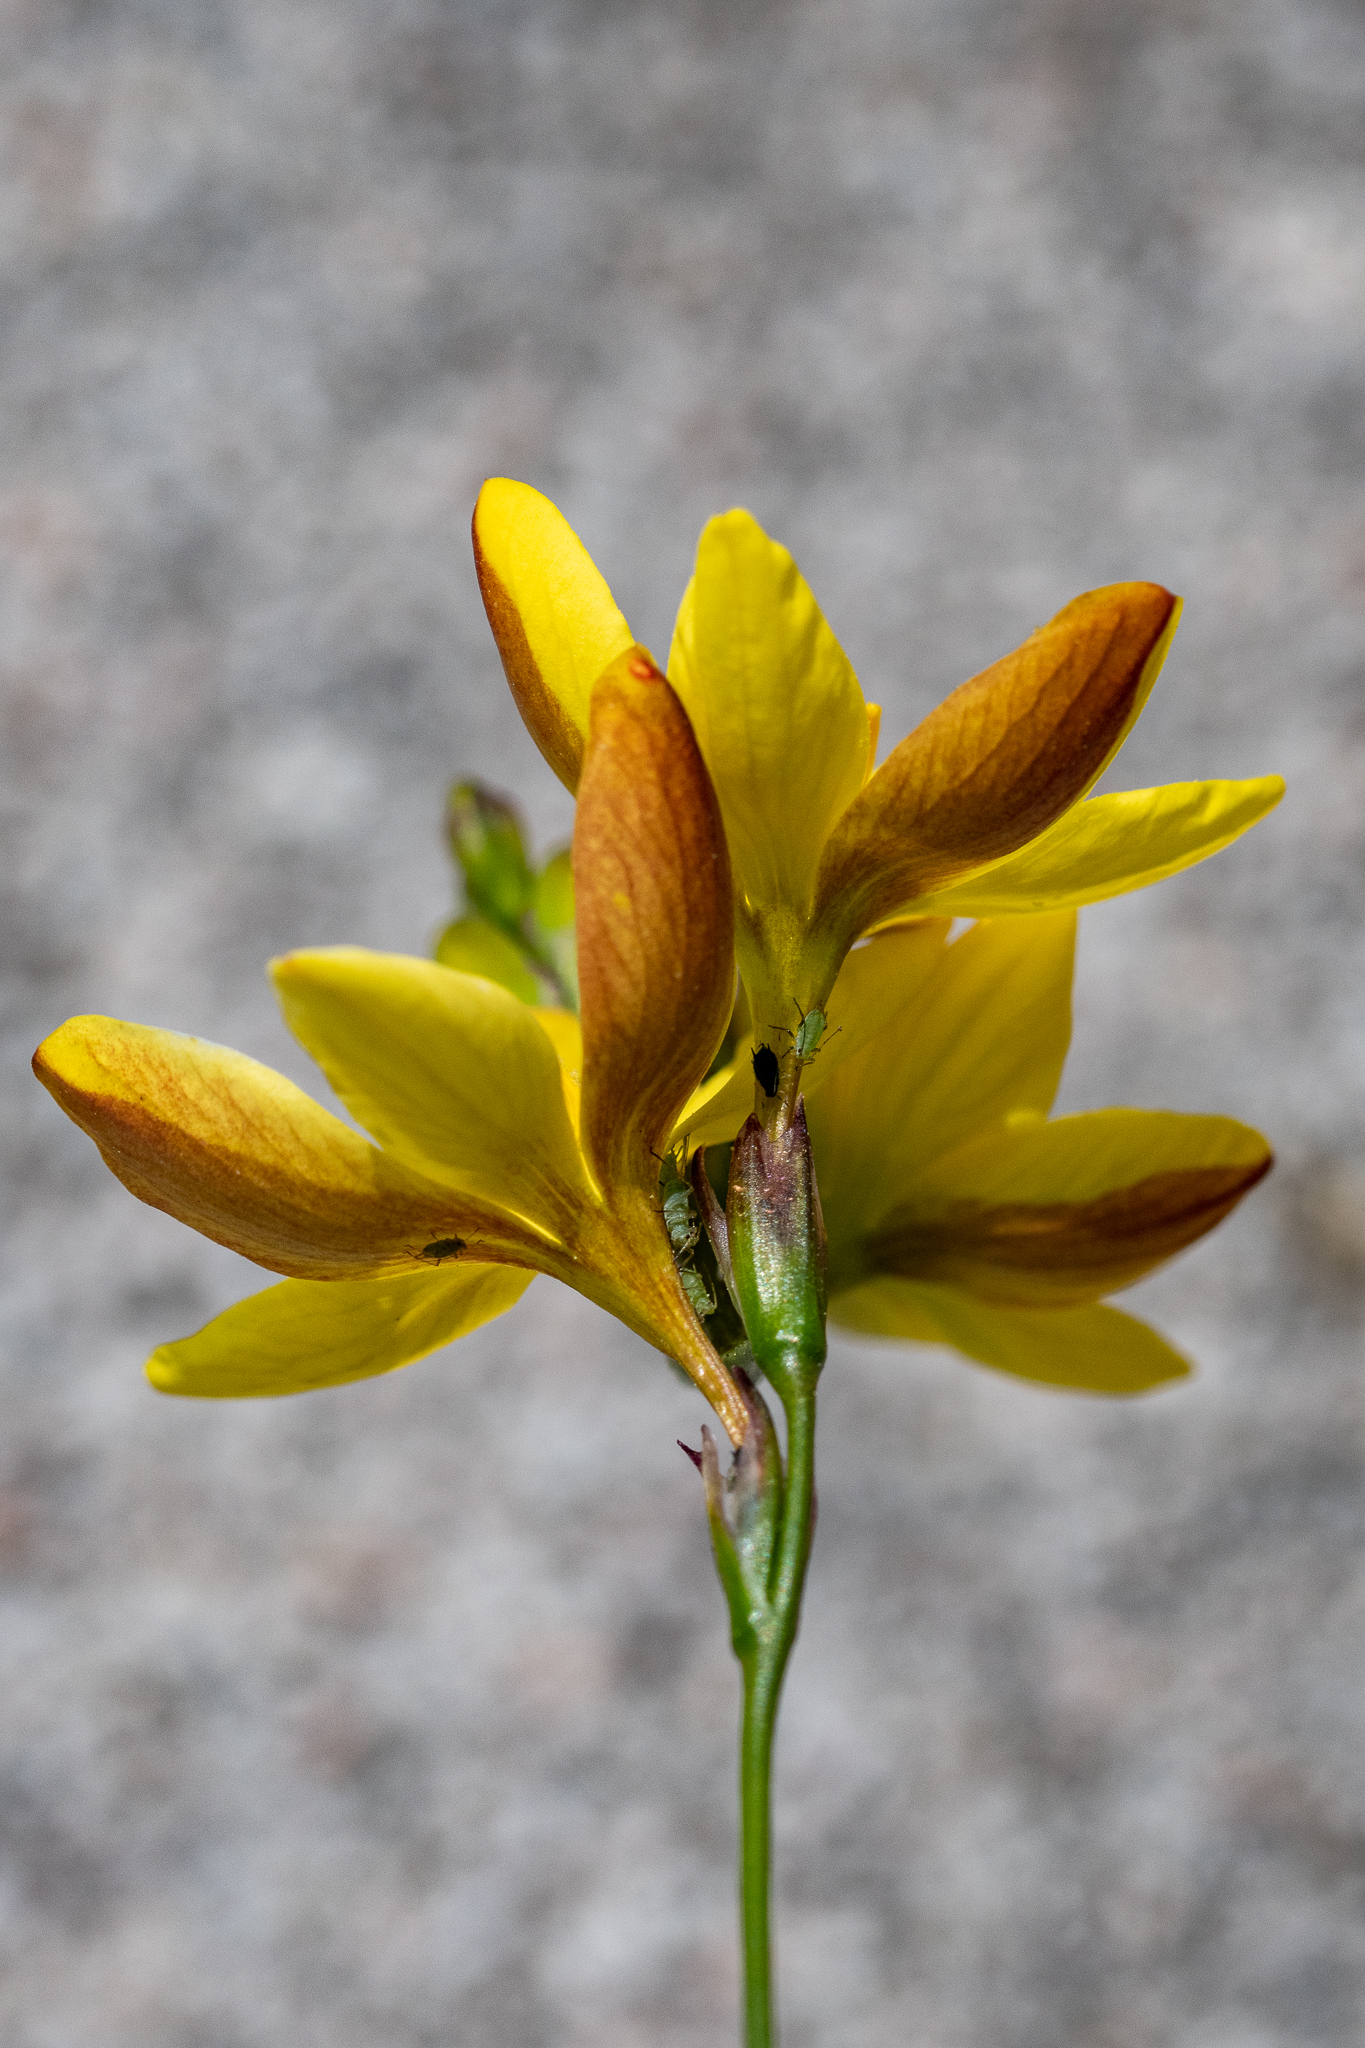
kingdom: Plantae
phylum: Tracheophyta
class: Liliopsida
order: Asparagales
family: Iridaceae
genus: Ixia
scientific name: Ixia dubia
